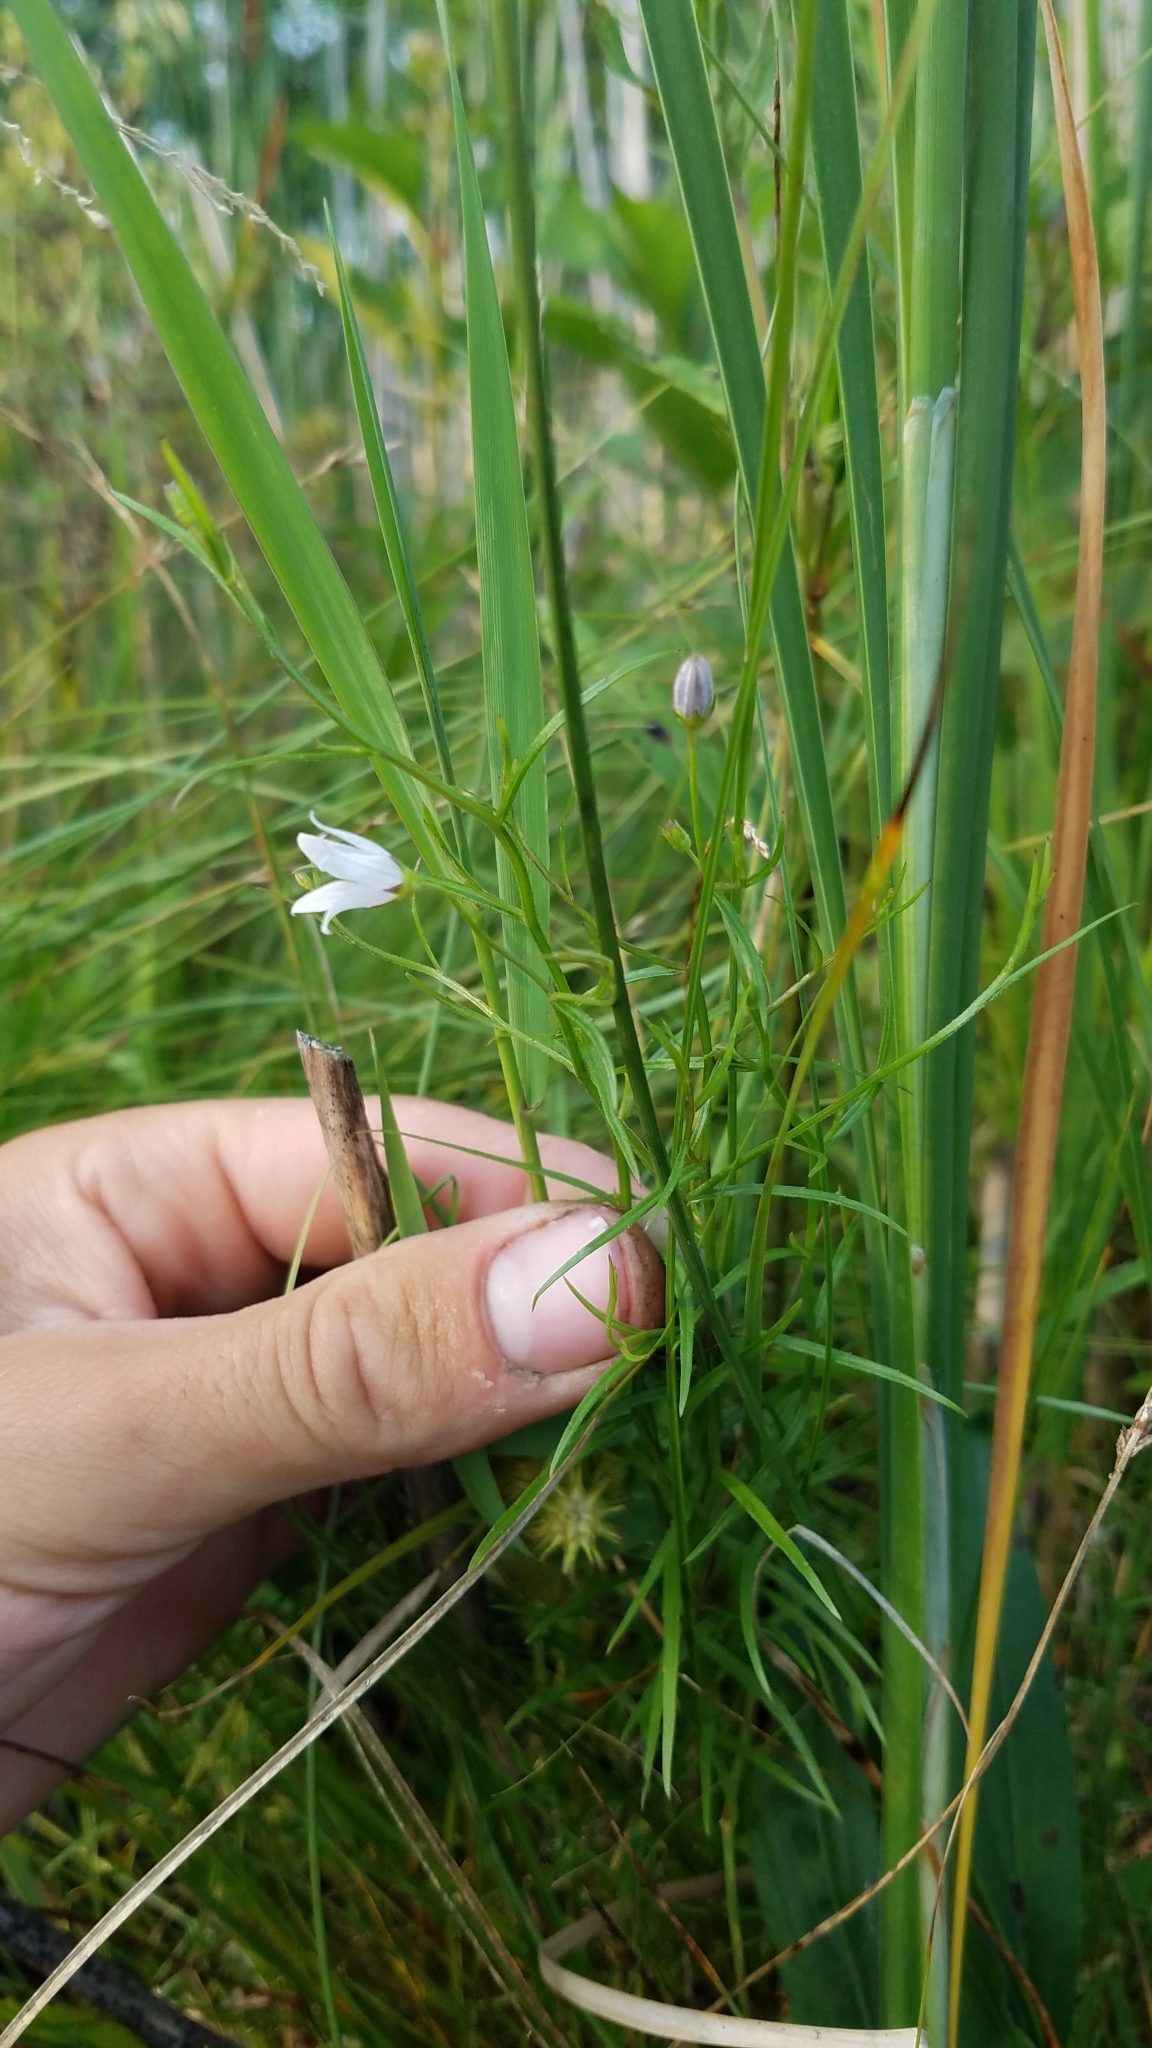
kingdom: Plantae
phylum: Tracheophyta
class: Magnoliopsida
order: Asterales
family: Campanulaceae
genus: Palustricodon
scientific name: Palustricodon aparinoides
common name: Bedstraw bellflower
